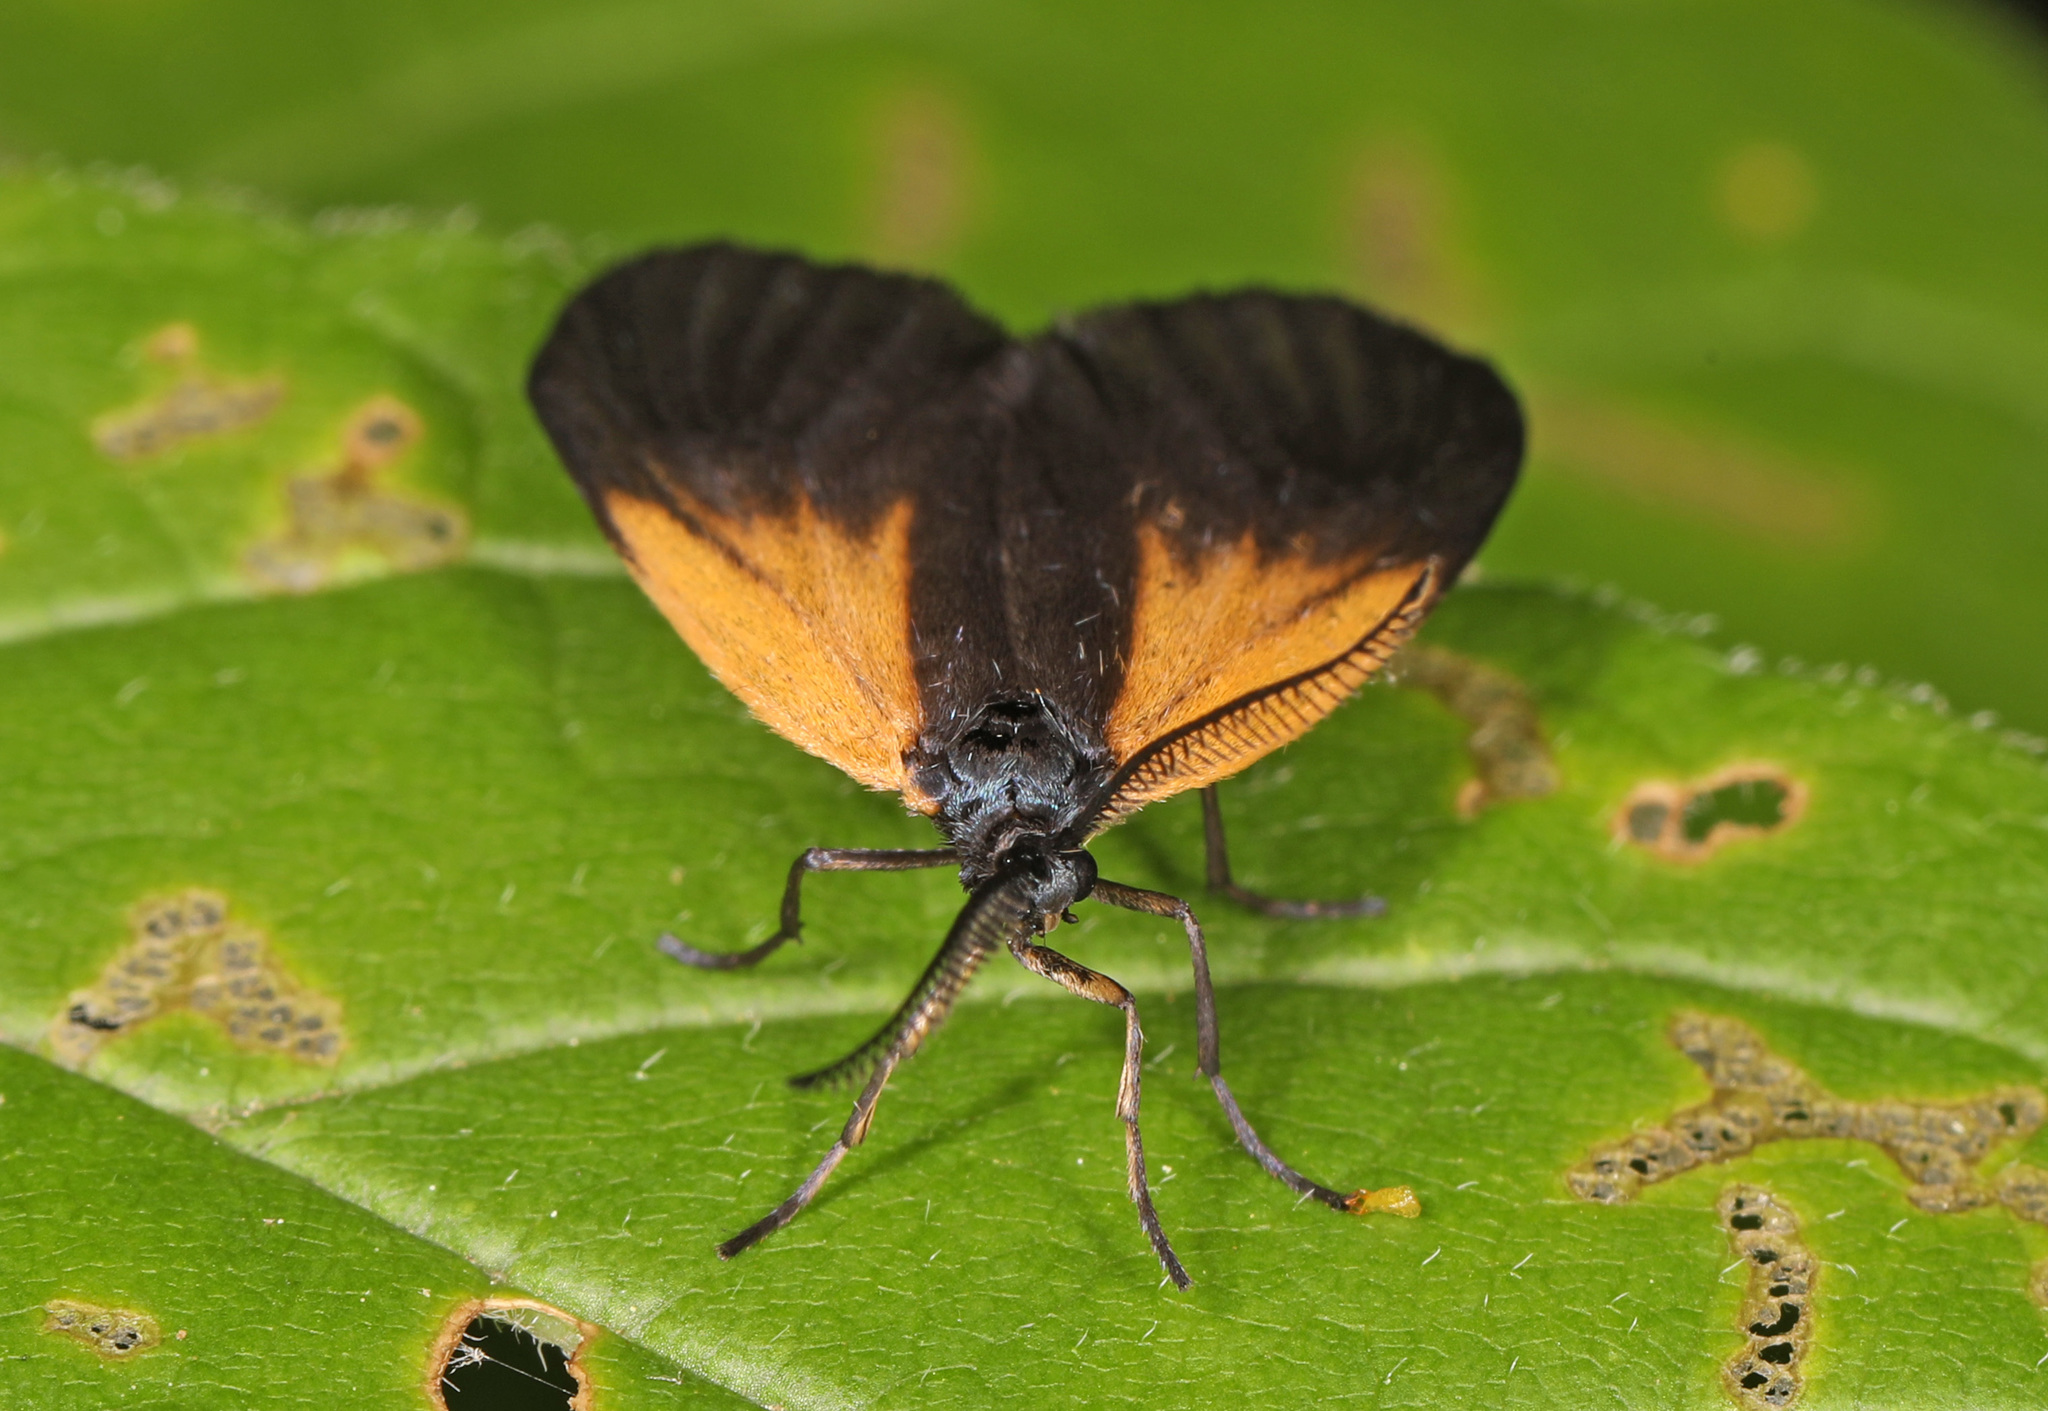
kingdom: Animalia
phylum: Arthropoda
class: Insecta
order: Lepidoptera
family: Zygaenidae
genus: Malthaca
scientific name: Malthaca dimidiata
